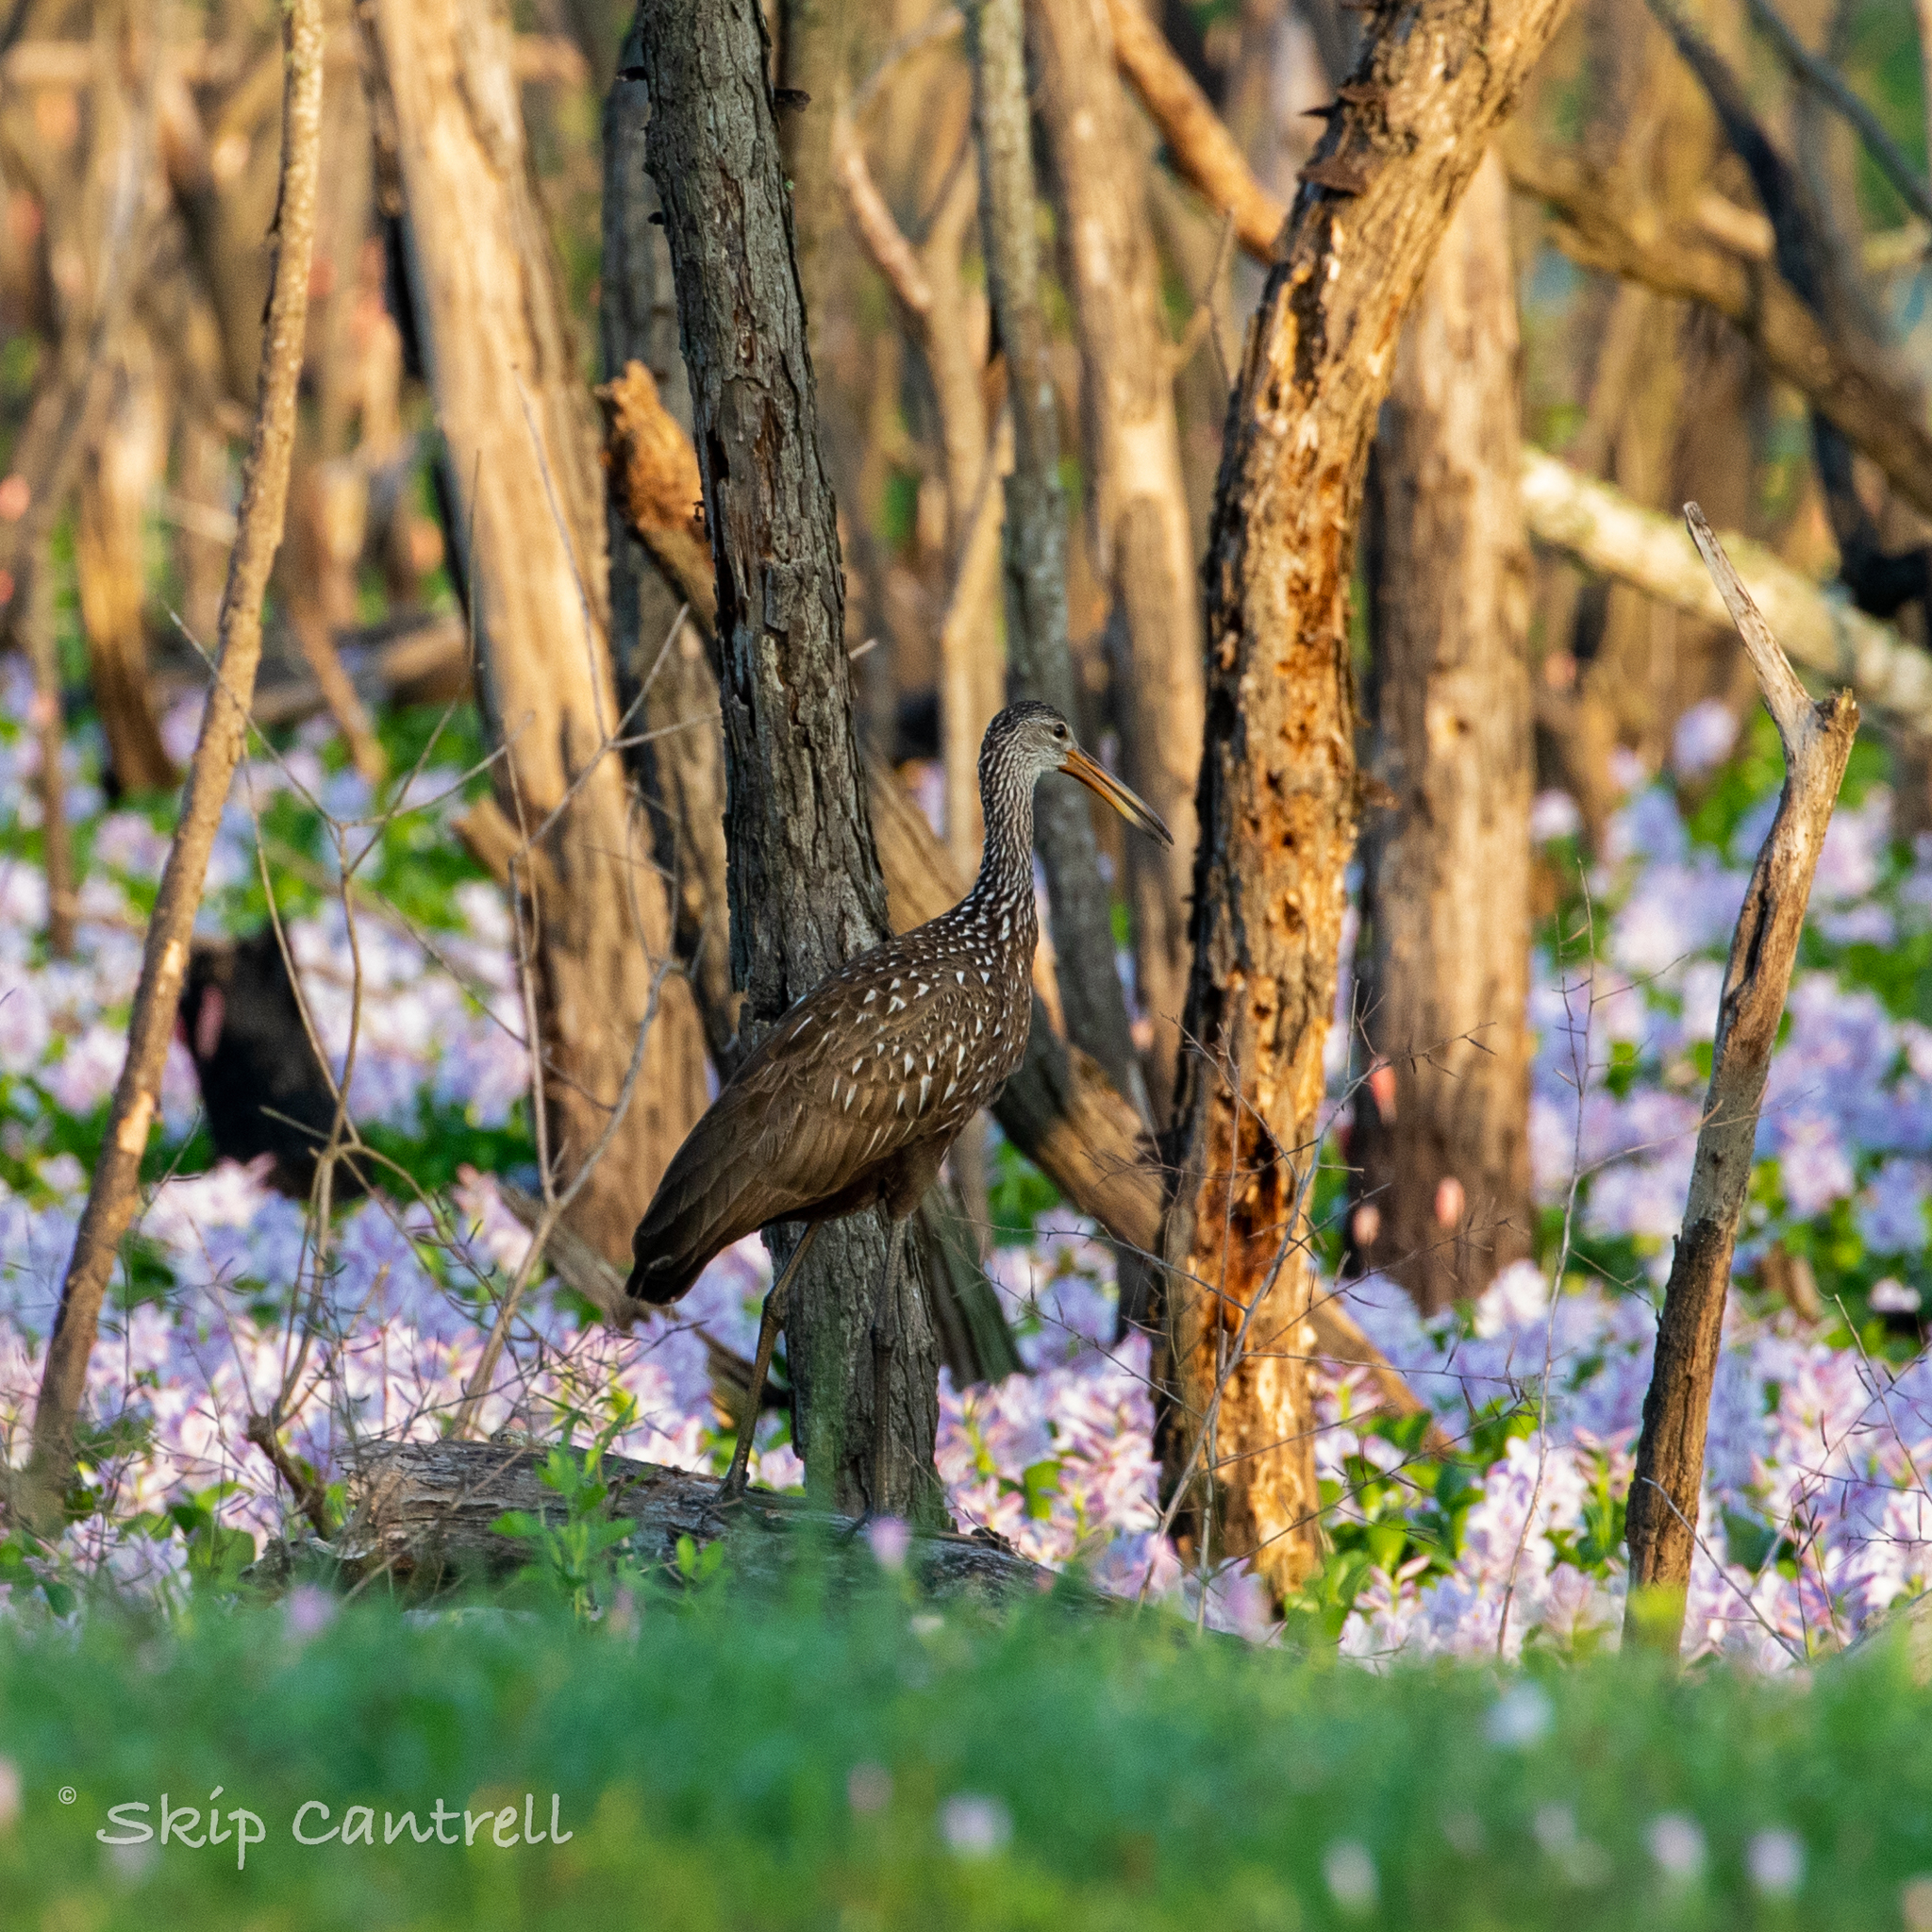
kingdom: Animalia
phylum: Chordata
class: Aves
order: Gruiformes
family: Aramidae
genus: Aramus
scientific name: Aramus guarauna
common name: Limpkin
